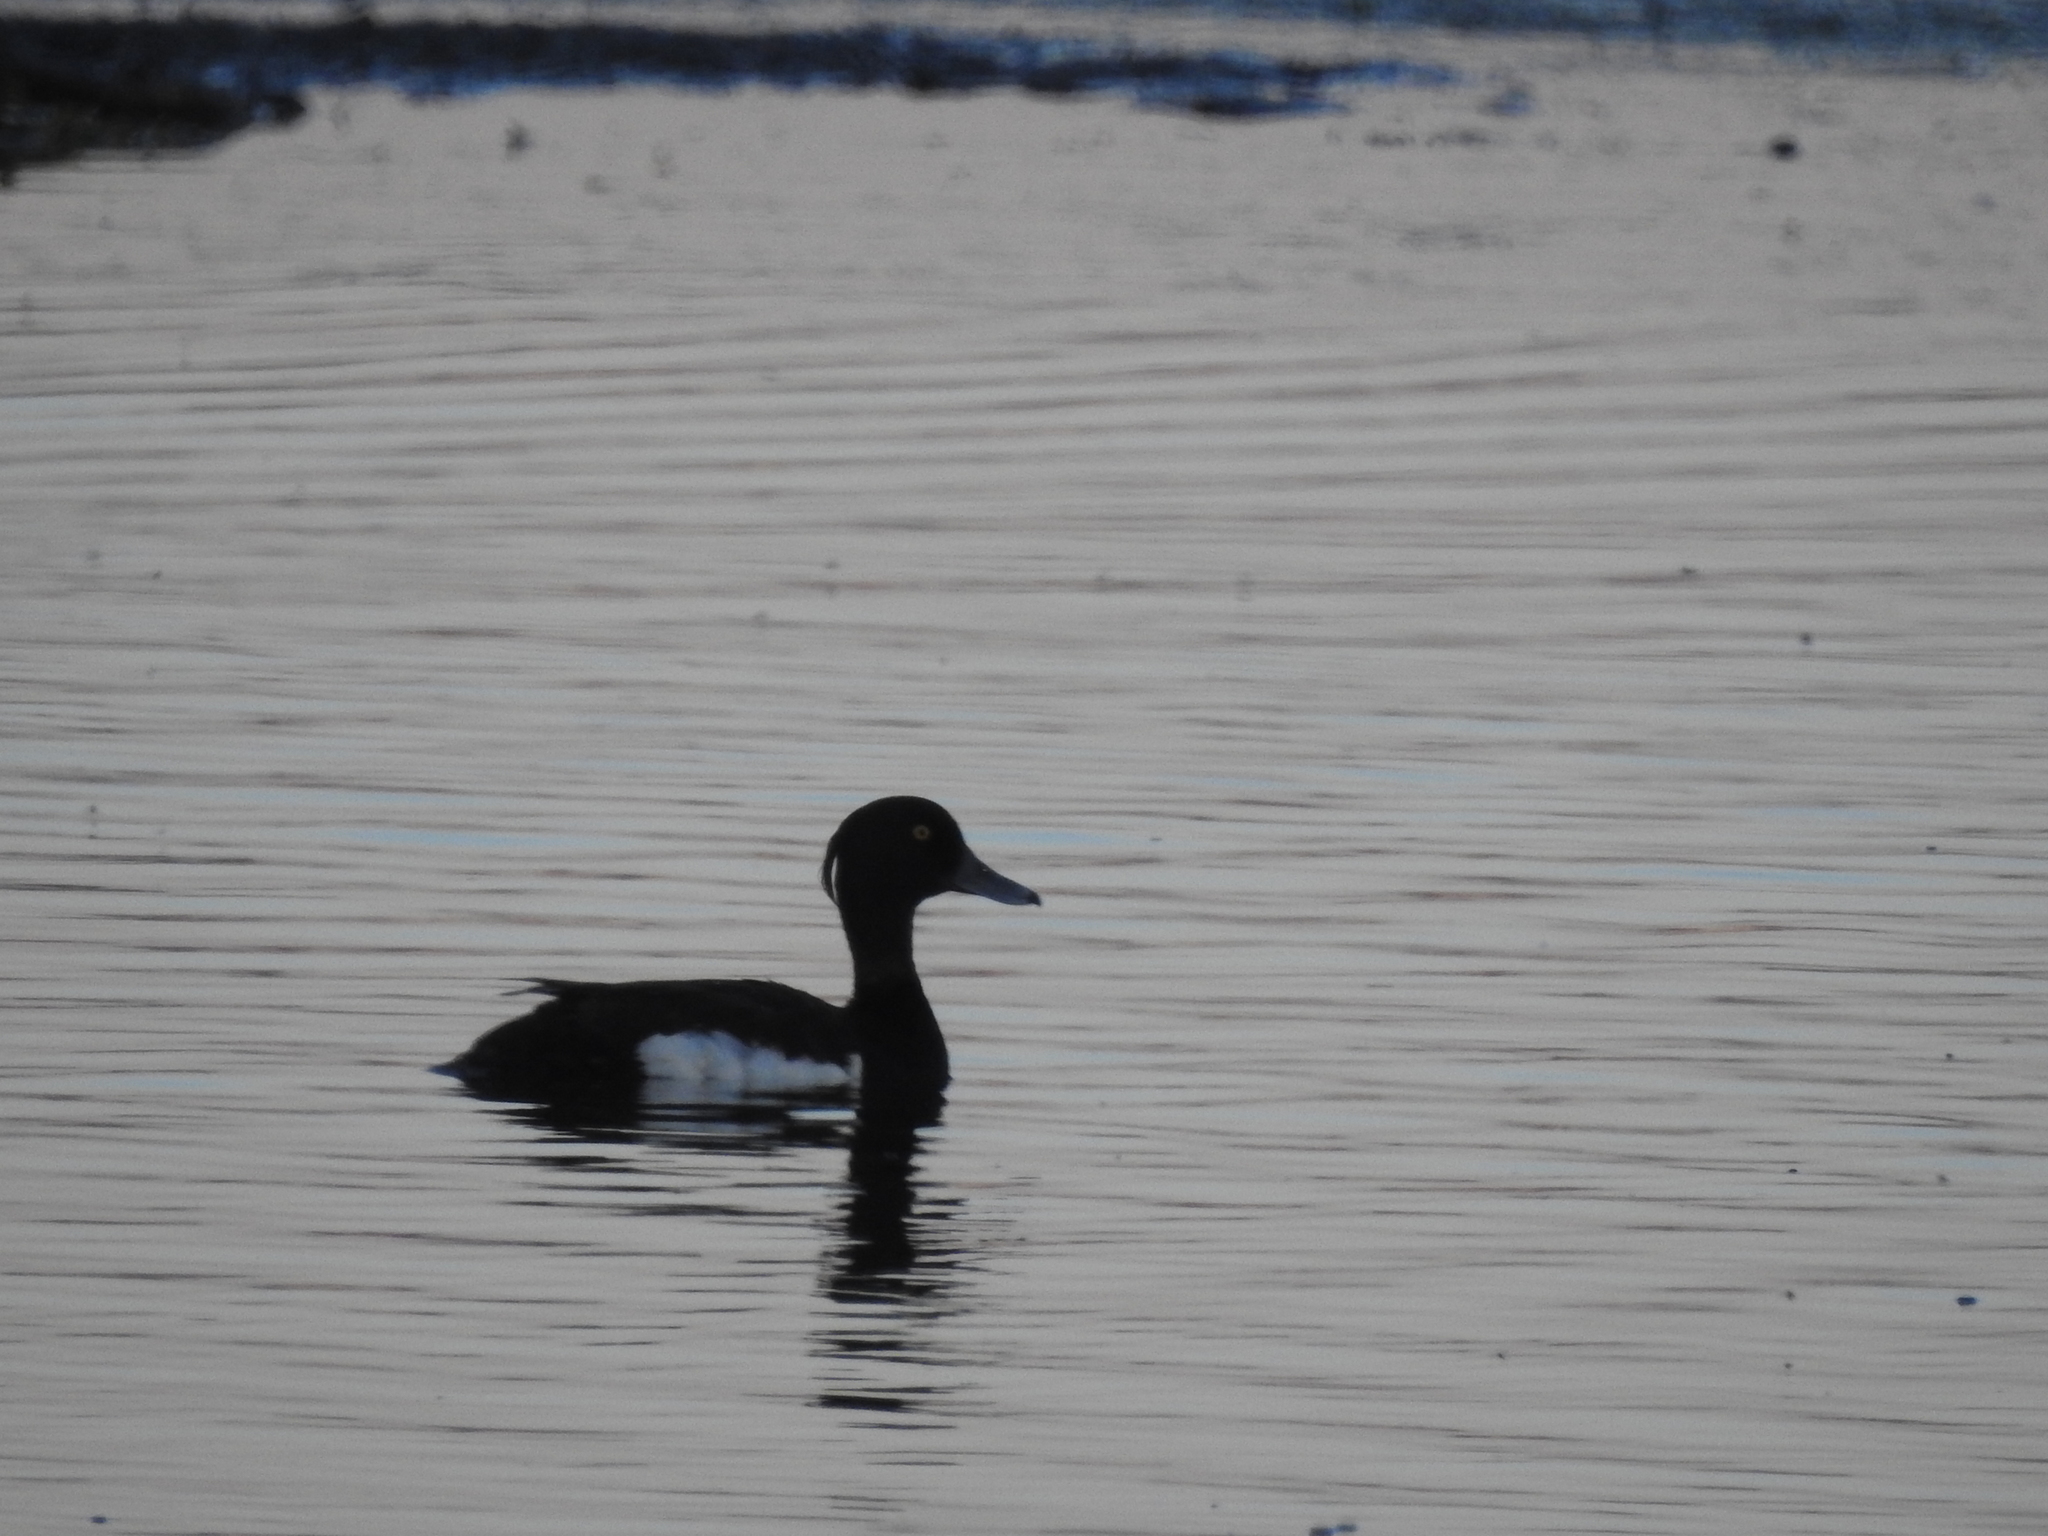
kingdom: Animalia
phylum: Chordata
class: Aves
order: Anseriformes
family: Anatidae
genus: Aythya
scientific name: Aythya fuligula
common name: Tufted duck
